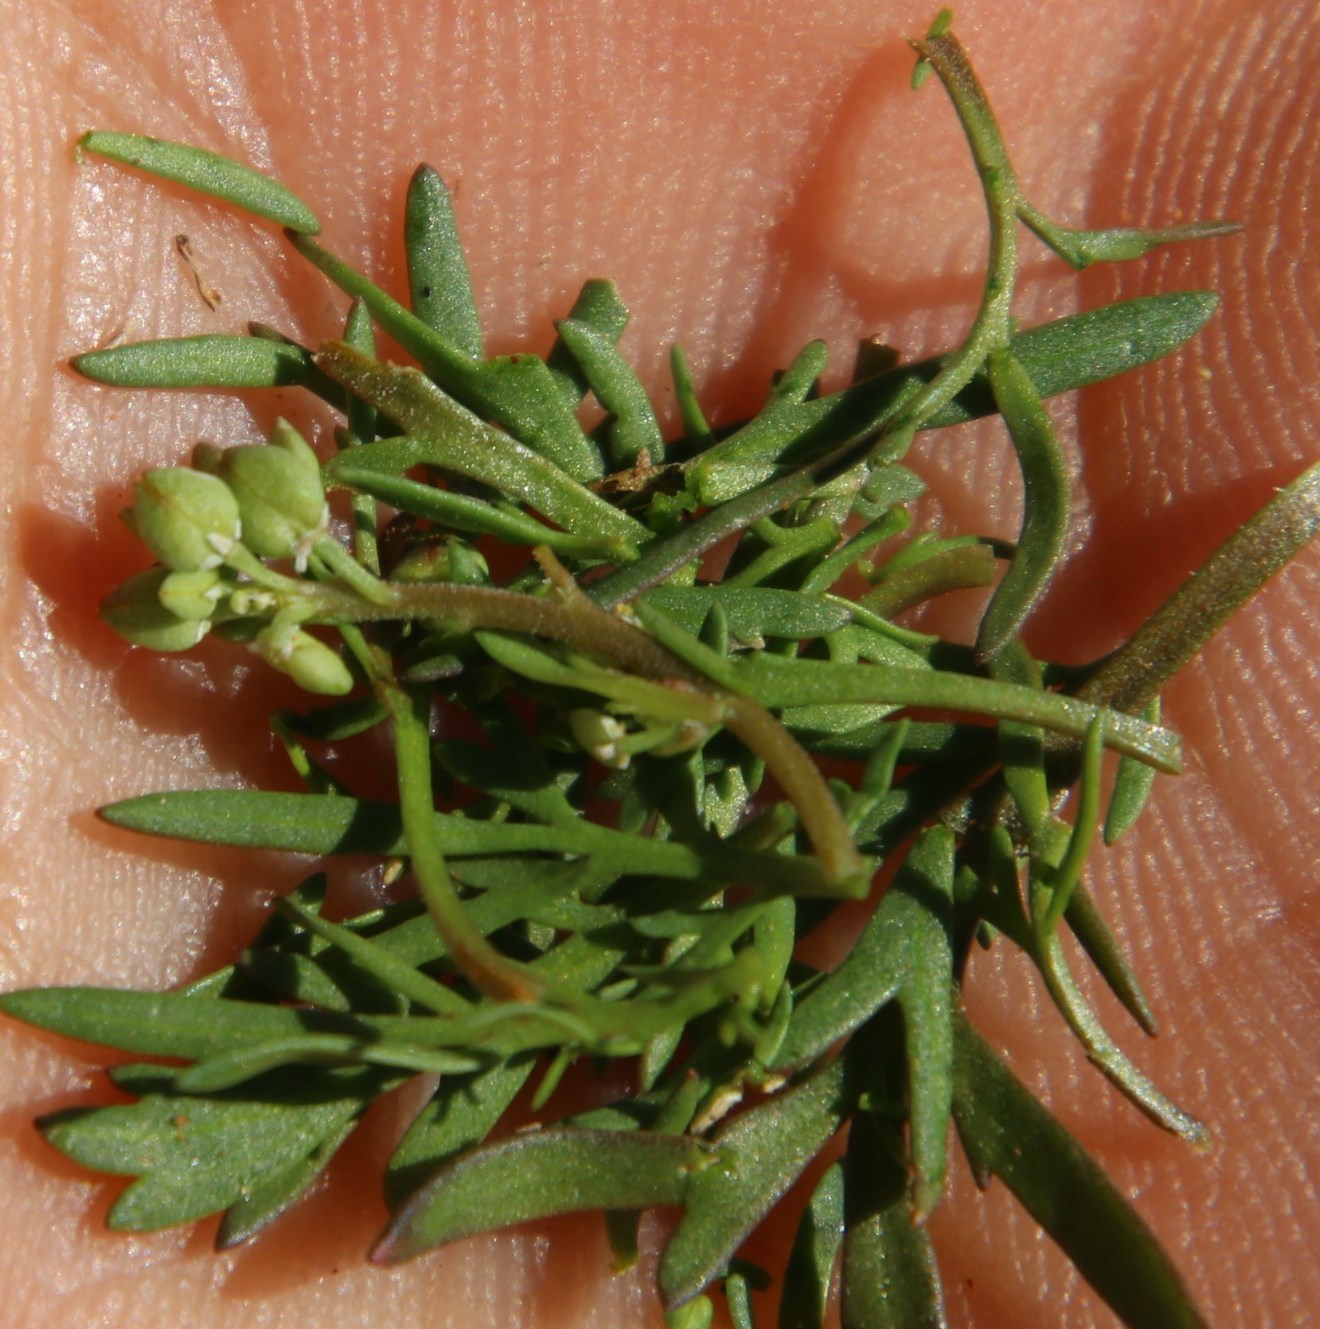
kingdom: Plantae
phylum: Tracheophyta
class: Magnoliopsida
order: Brassicales
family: Brassicaceae
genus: Lepidium
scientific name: Lepidium desertorum
